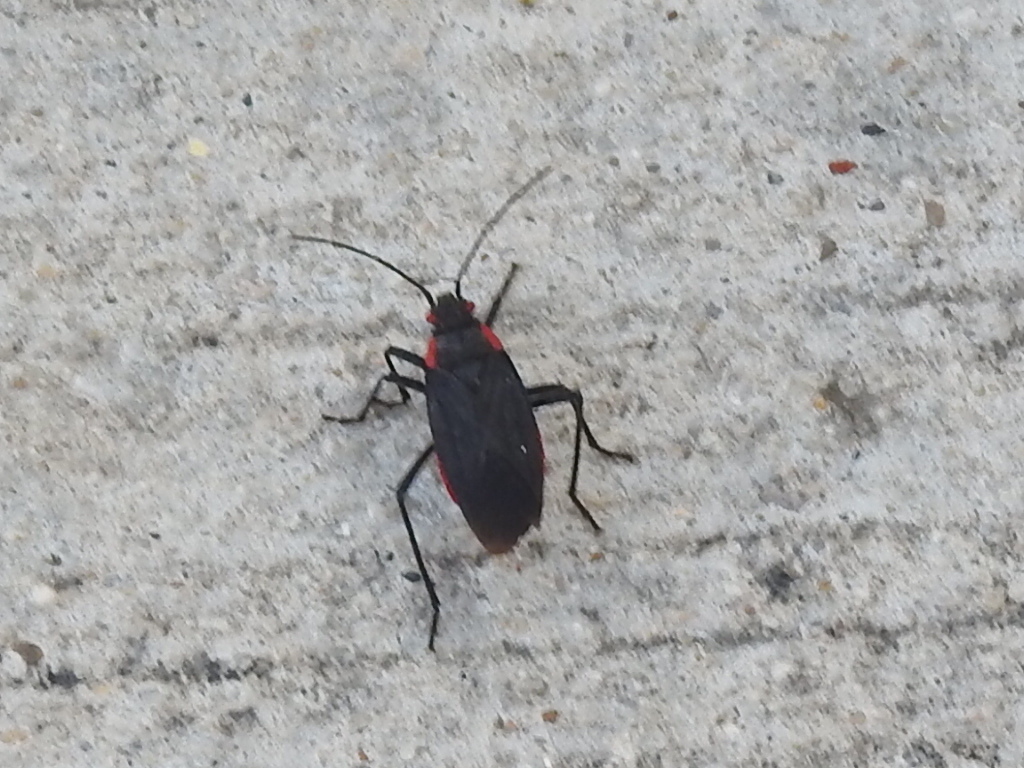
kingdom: Animalia
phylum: Arthropoda
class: Insecta
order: Hemiptera
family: Rhopalidae
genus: Jadera
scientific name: Jadera haematoloma
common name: Red-shouldered bug
